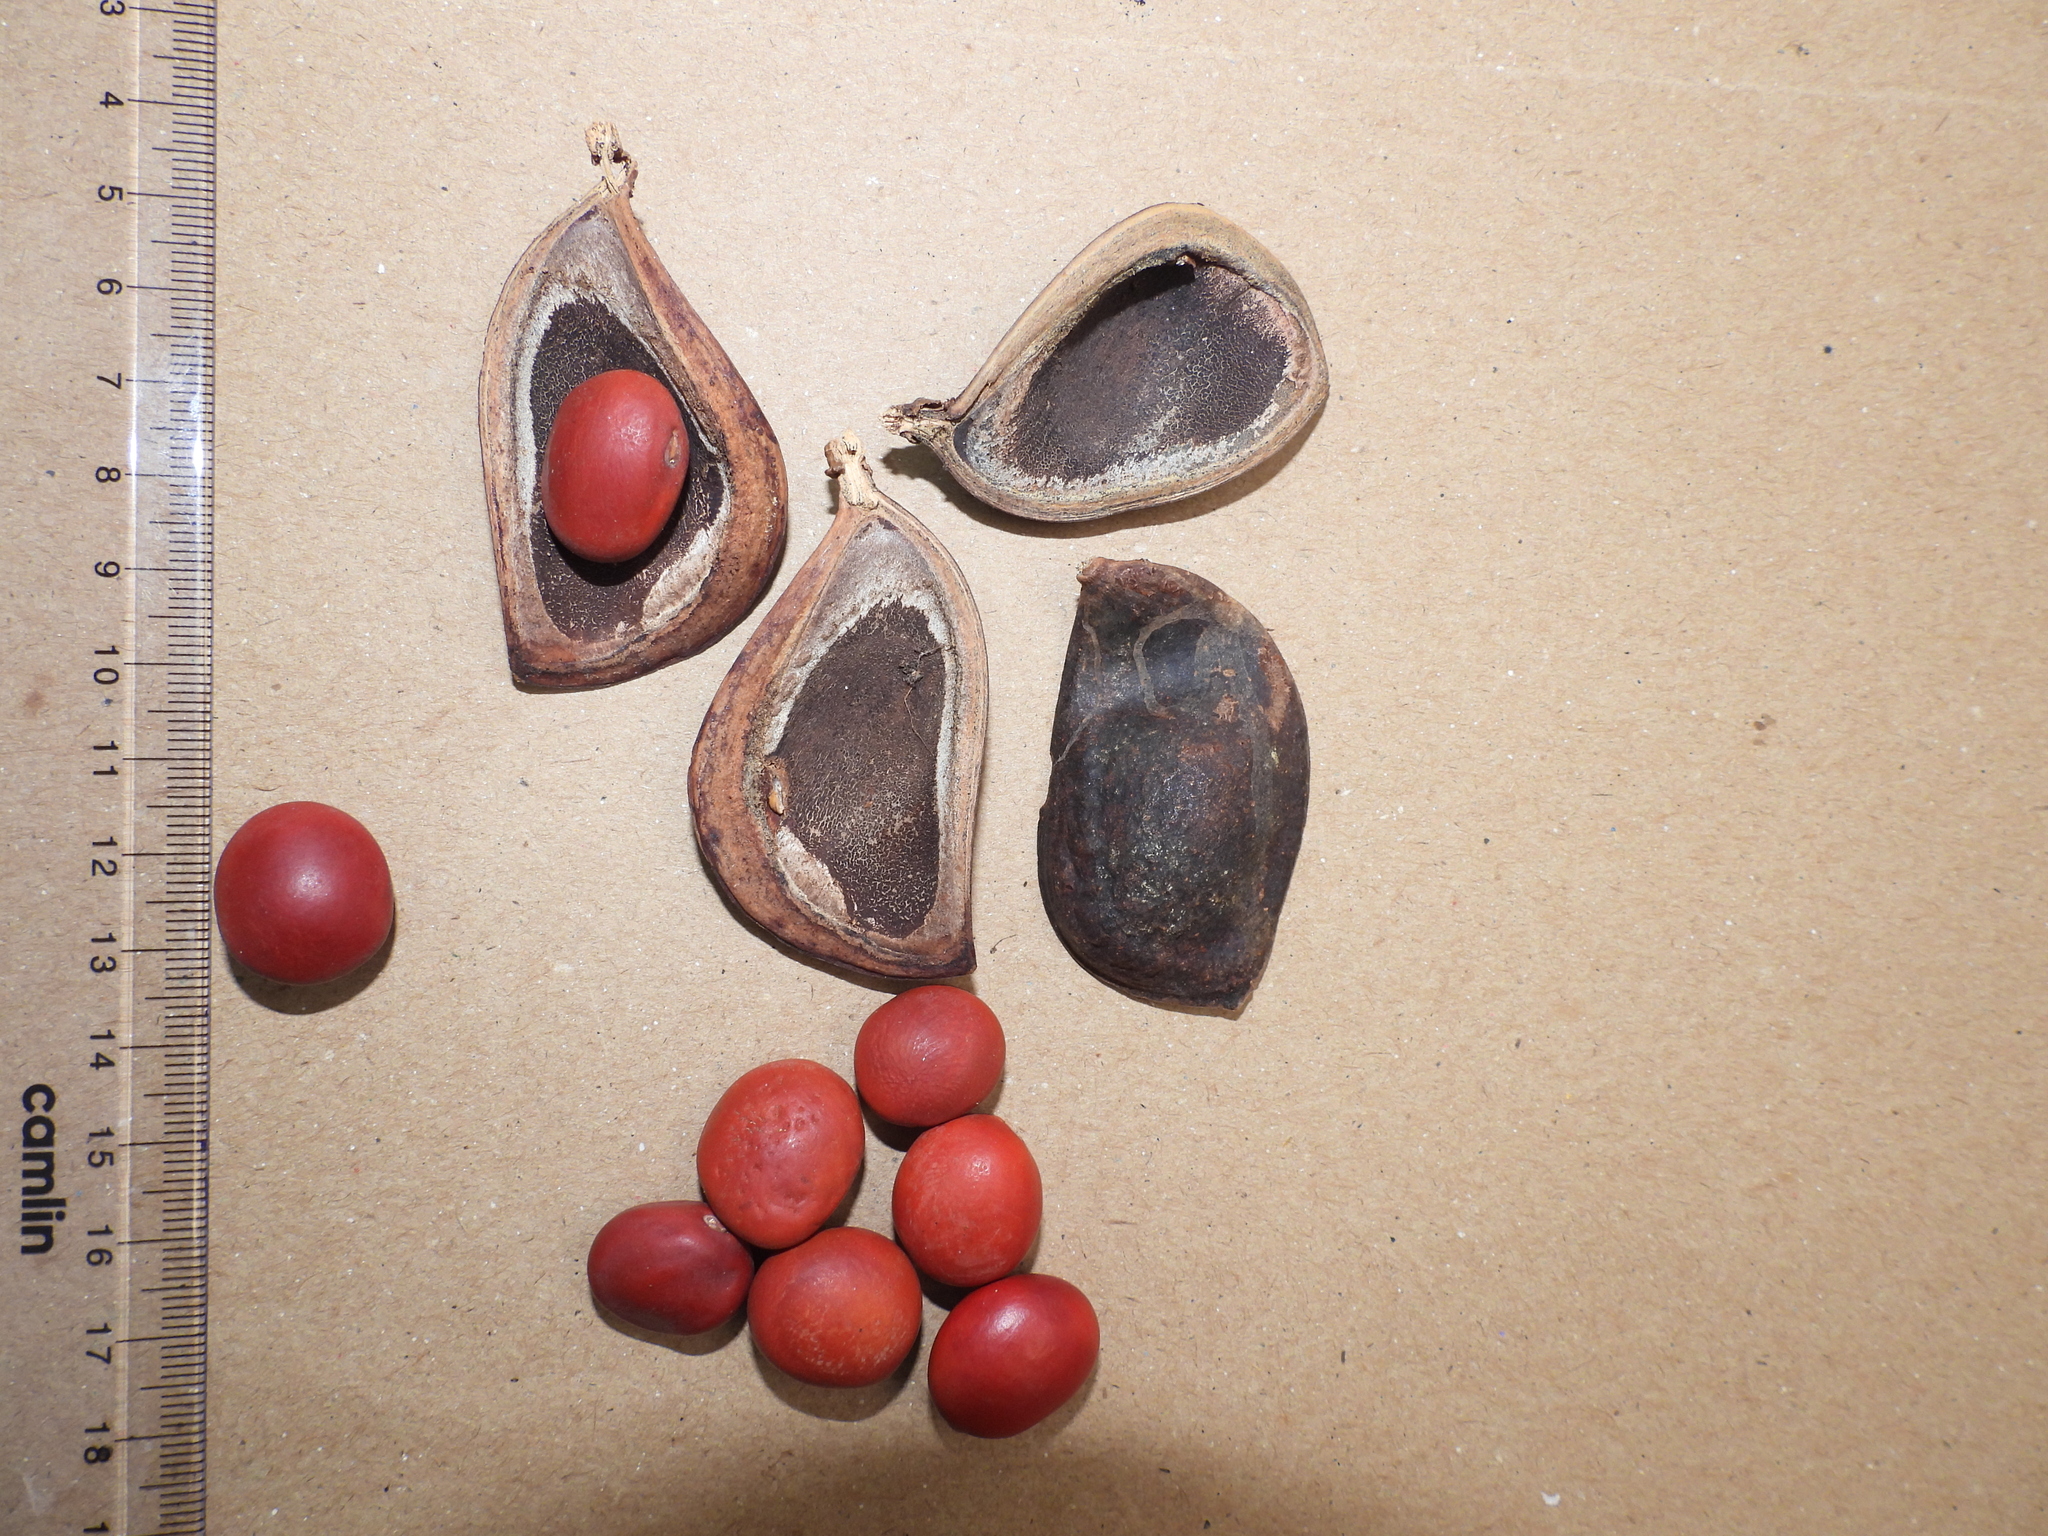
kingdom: Plantae
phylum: Tracheophyta
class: Magnoliopsida
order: Fabales
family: Fabaceae
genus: Ormosia
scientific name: Ormosia travancorica
